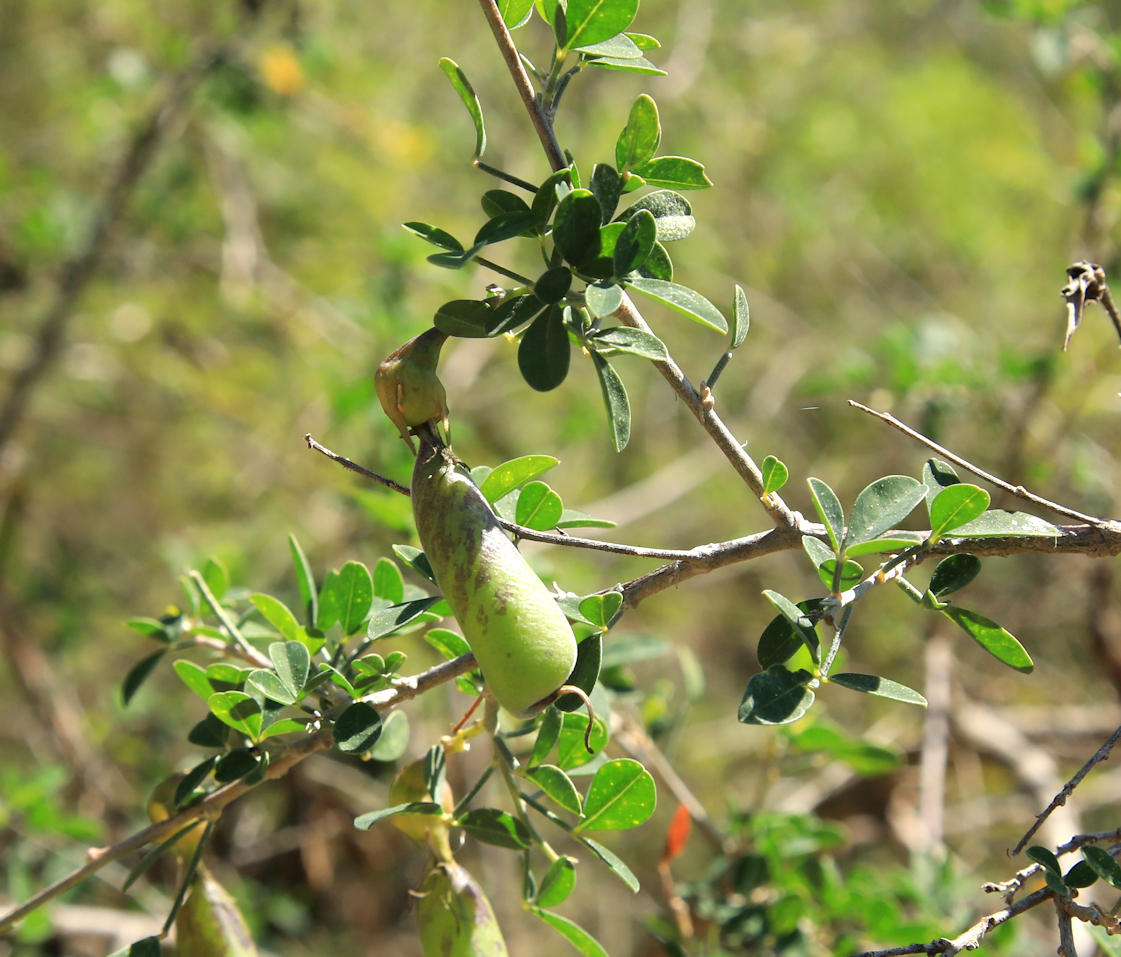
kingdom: Plantae
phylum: Tracheophyta
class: Magnoliopsida
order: Fabales
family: Fabaceae
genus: Crotalaria
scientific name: Crotalaria monteiroi
